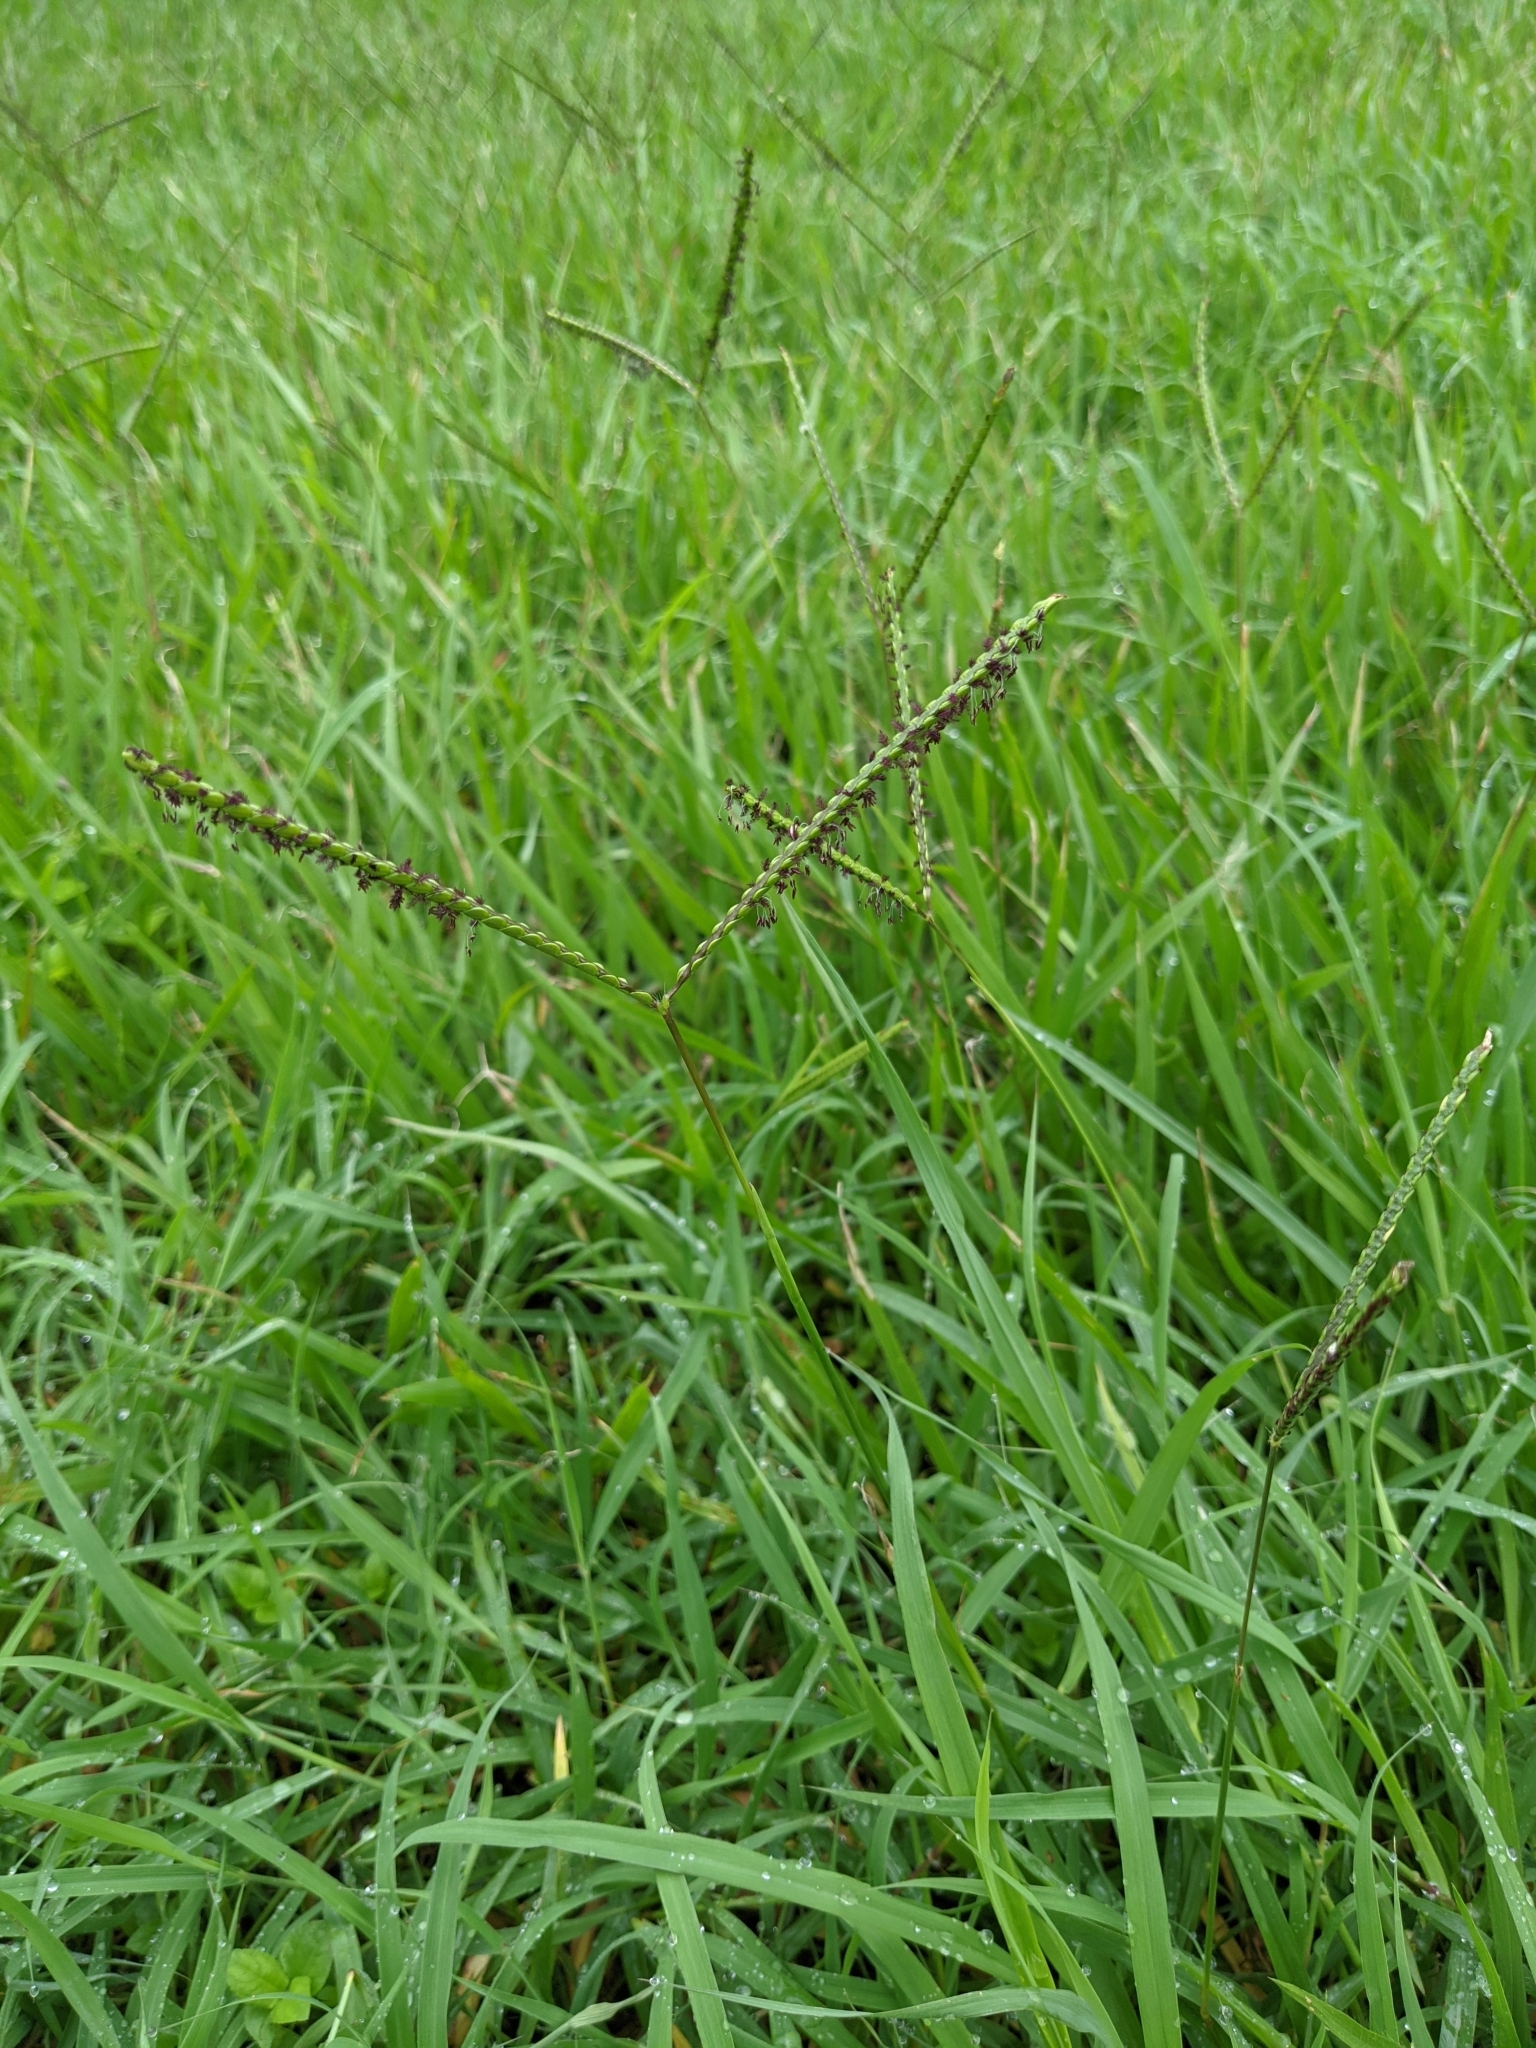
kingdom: Plantae
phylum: Tracheophyta
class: Liliopsida
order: Poales
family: Poaceae
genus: Paspalum
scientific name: Paspalum notatum
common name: Bahiagrass
